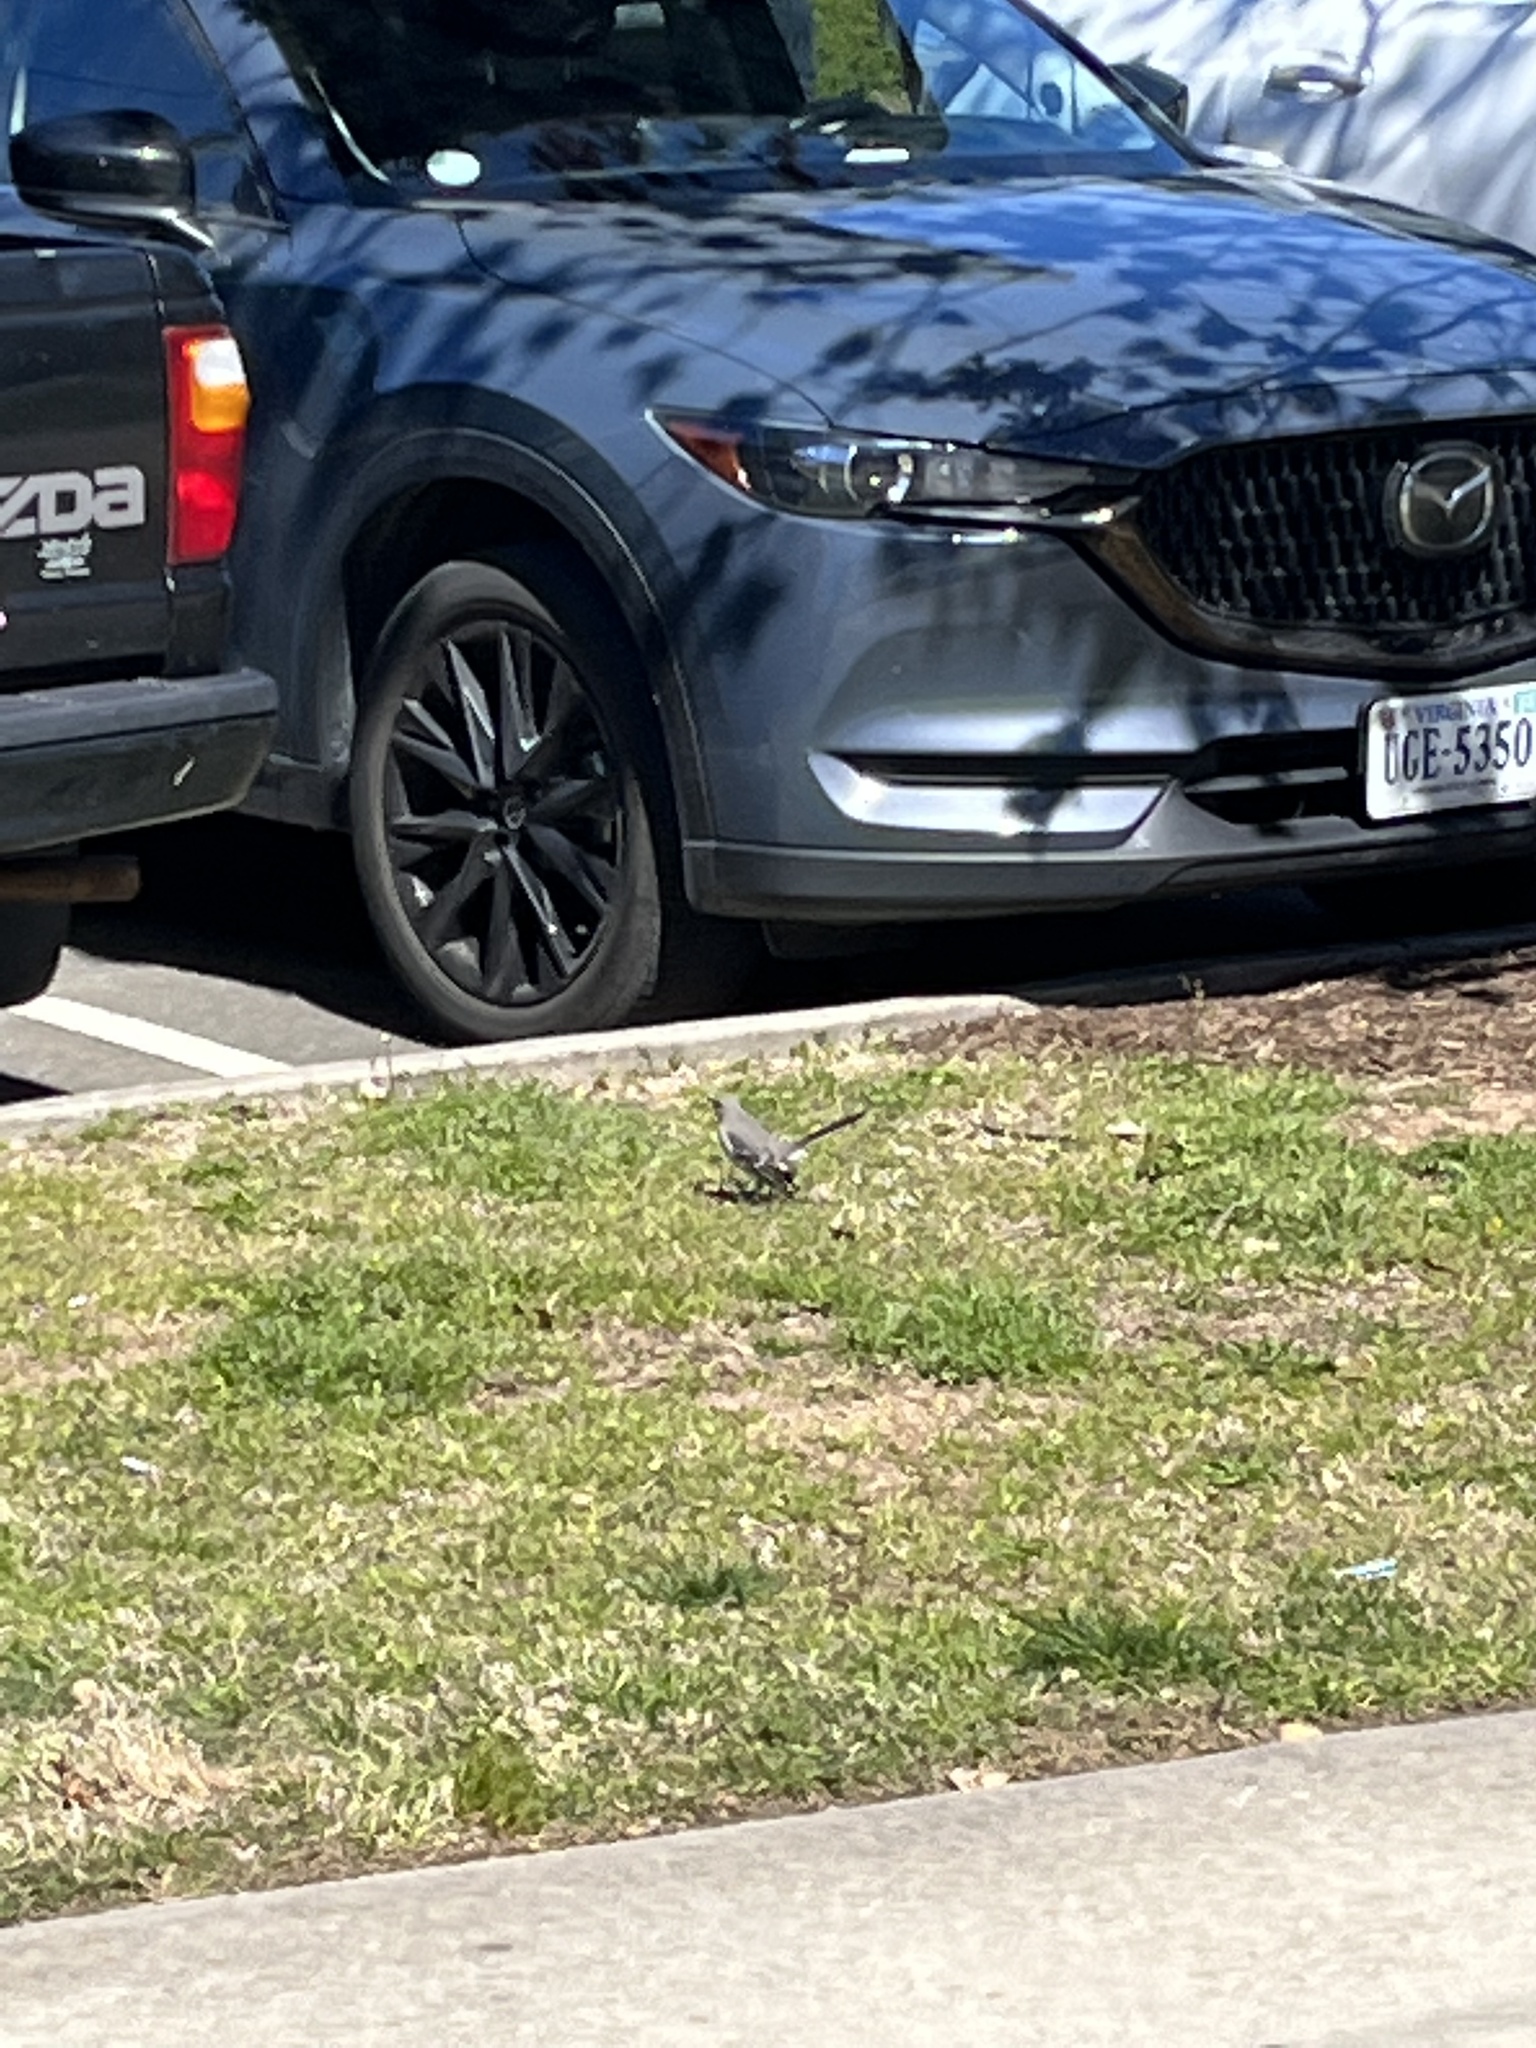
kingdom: Animalia
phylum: Chordata
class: Aves
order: Passeriformes
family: Mimidae
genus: Mimus
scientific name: Mimus polyglottos
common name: Northern mockingbird
